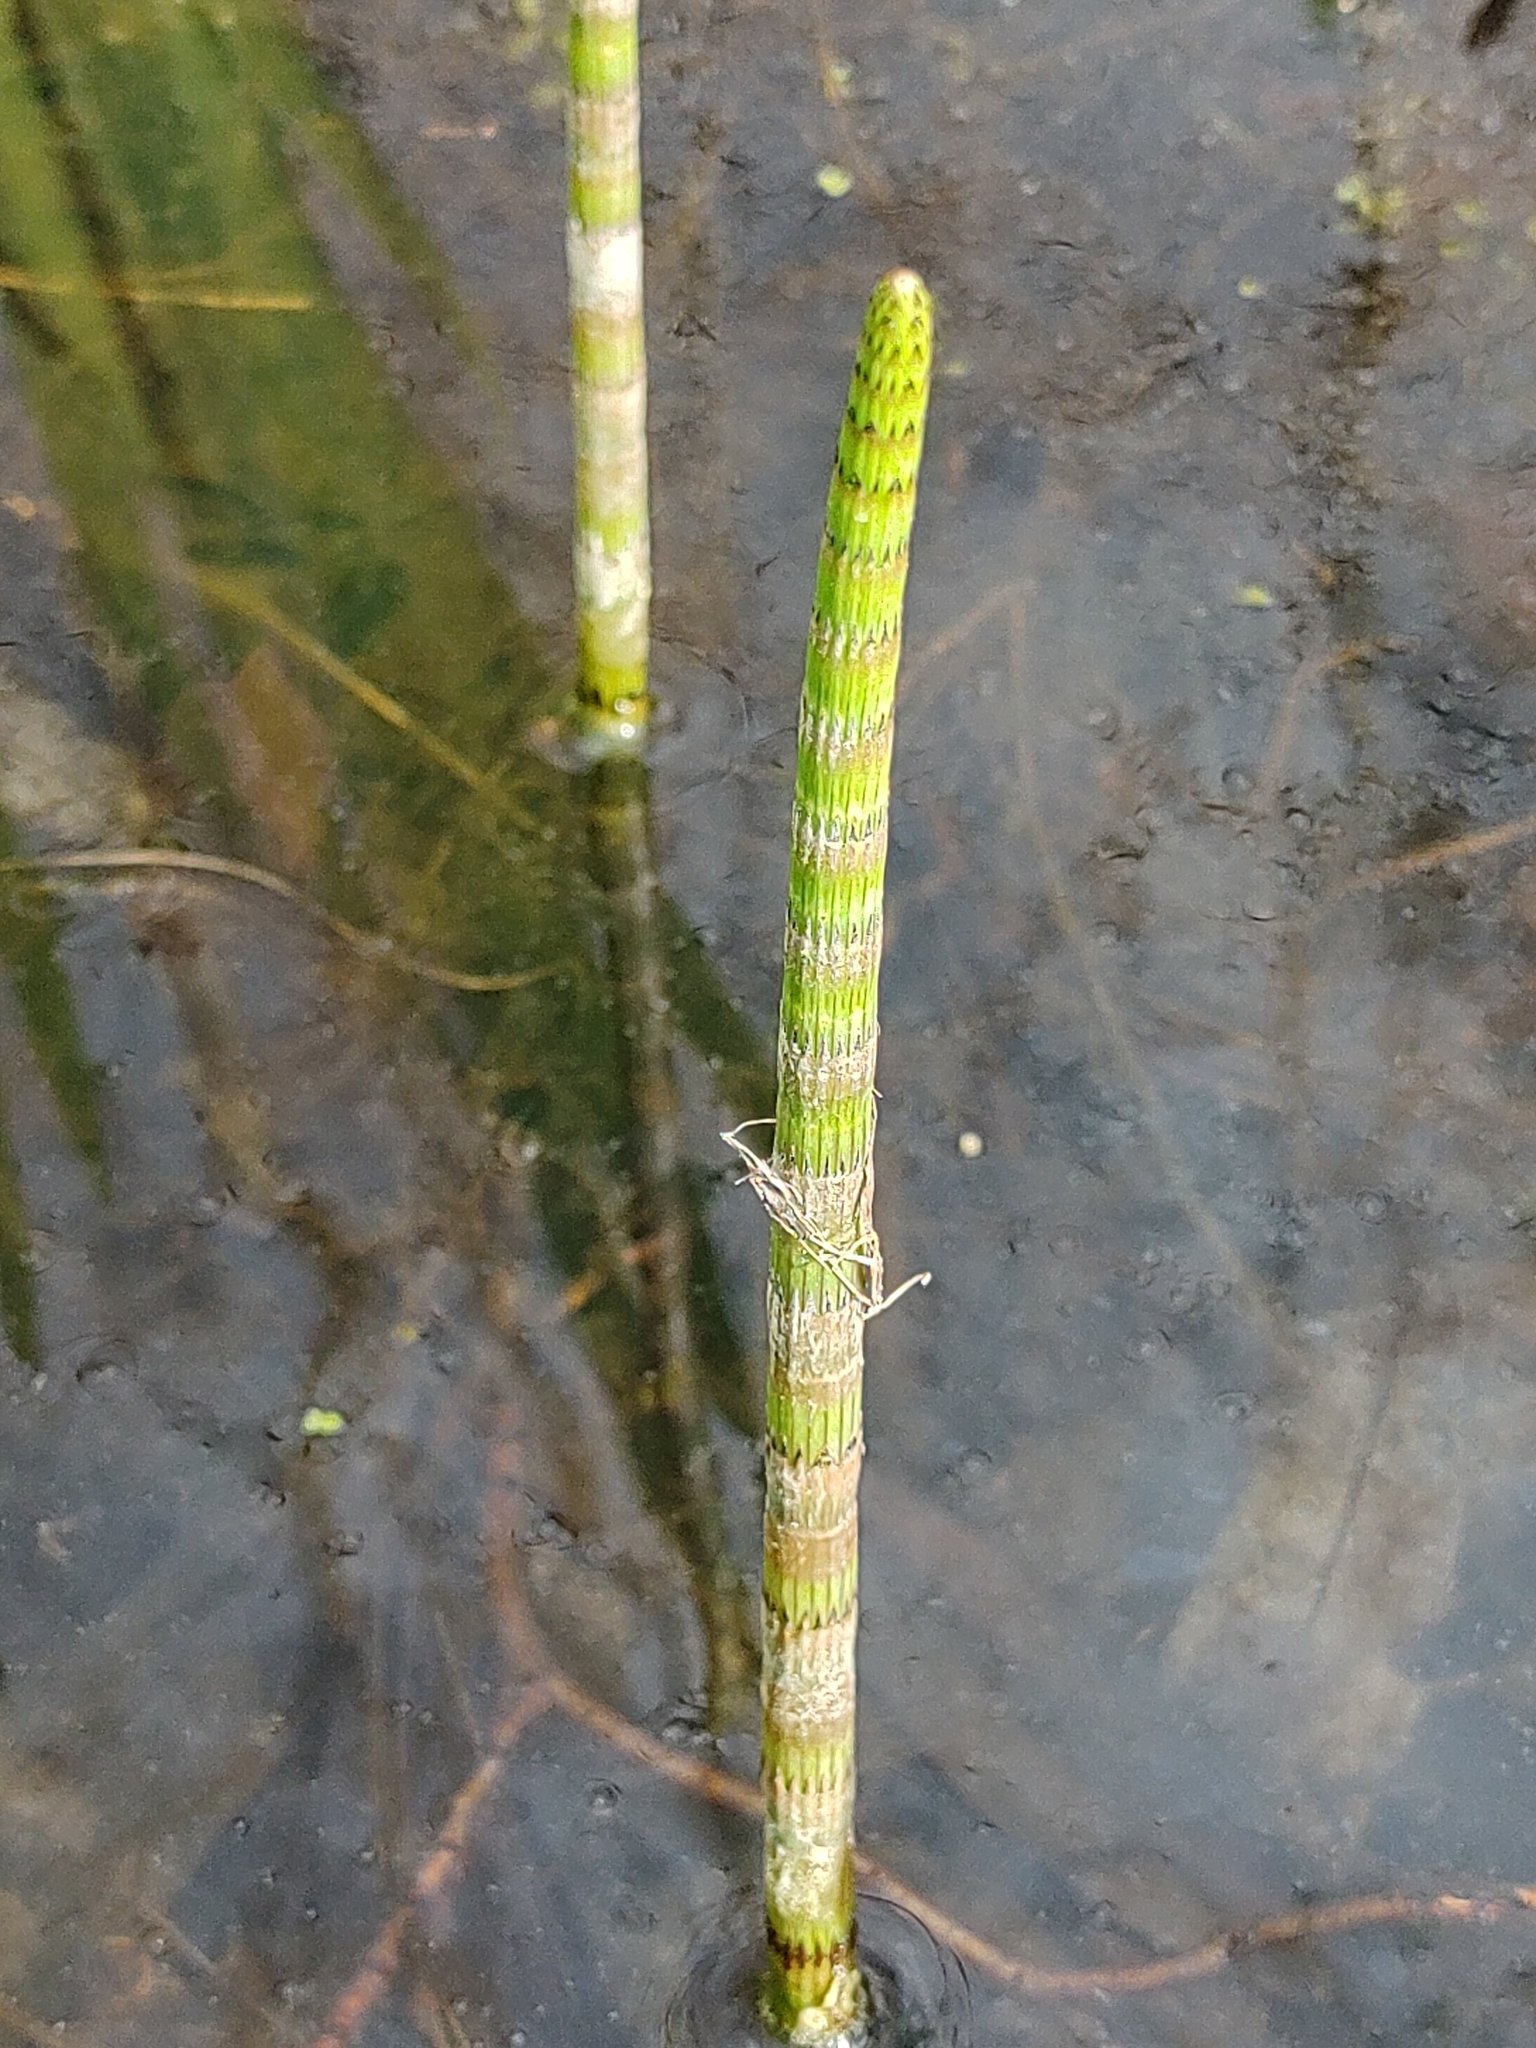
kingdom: Plantae
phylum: Tracheophyta
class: Polypodiopsida
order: Equisetales
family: Equisetaceae
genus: Equisetum
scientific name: Equisetum fluviatile
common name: Water horsetail
